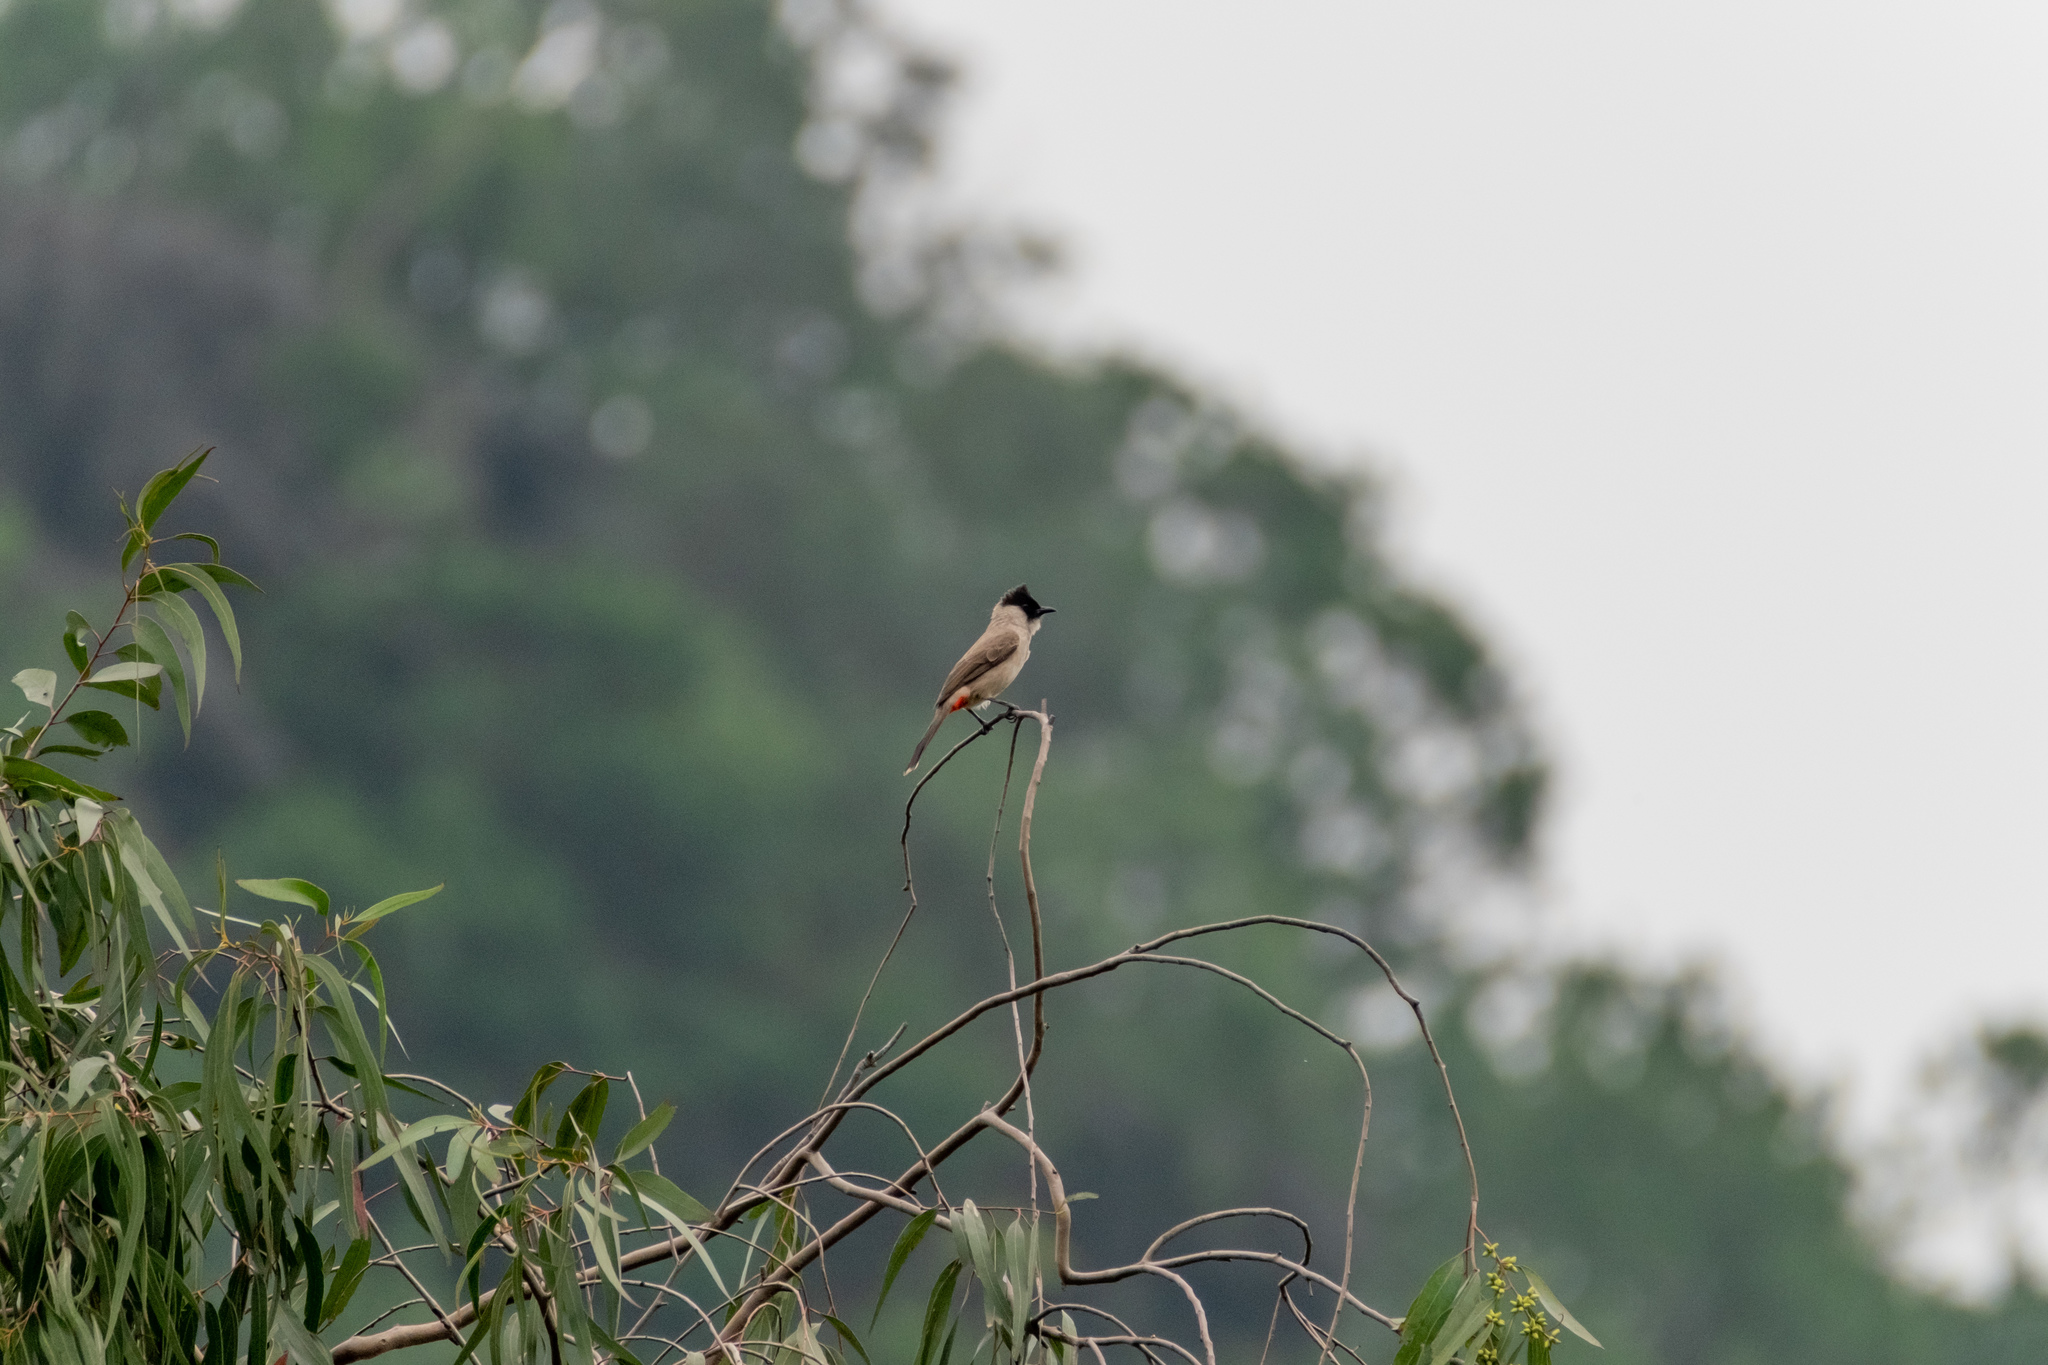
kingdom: Animalia
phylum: Chordata
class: Aves
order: Passeriformes
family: Pycnonotidae
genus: Pycnonotus
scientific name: Pycnonotus aurigaster
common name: Sooty-headed bulbul
